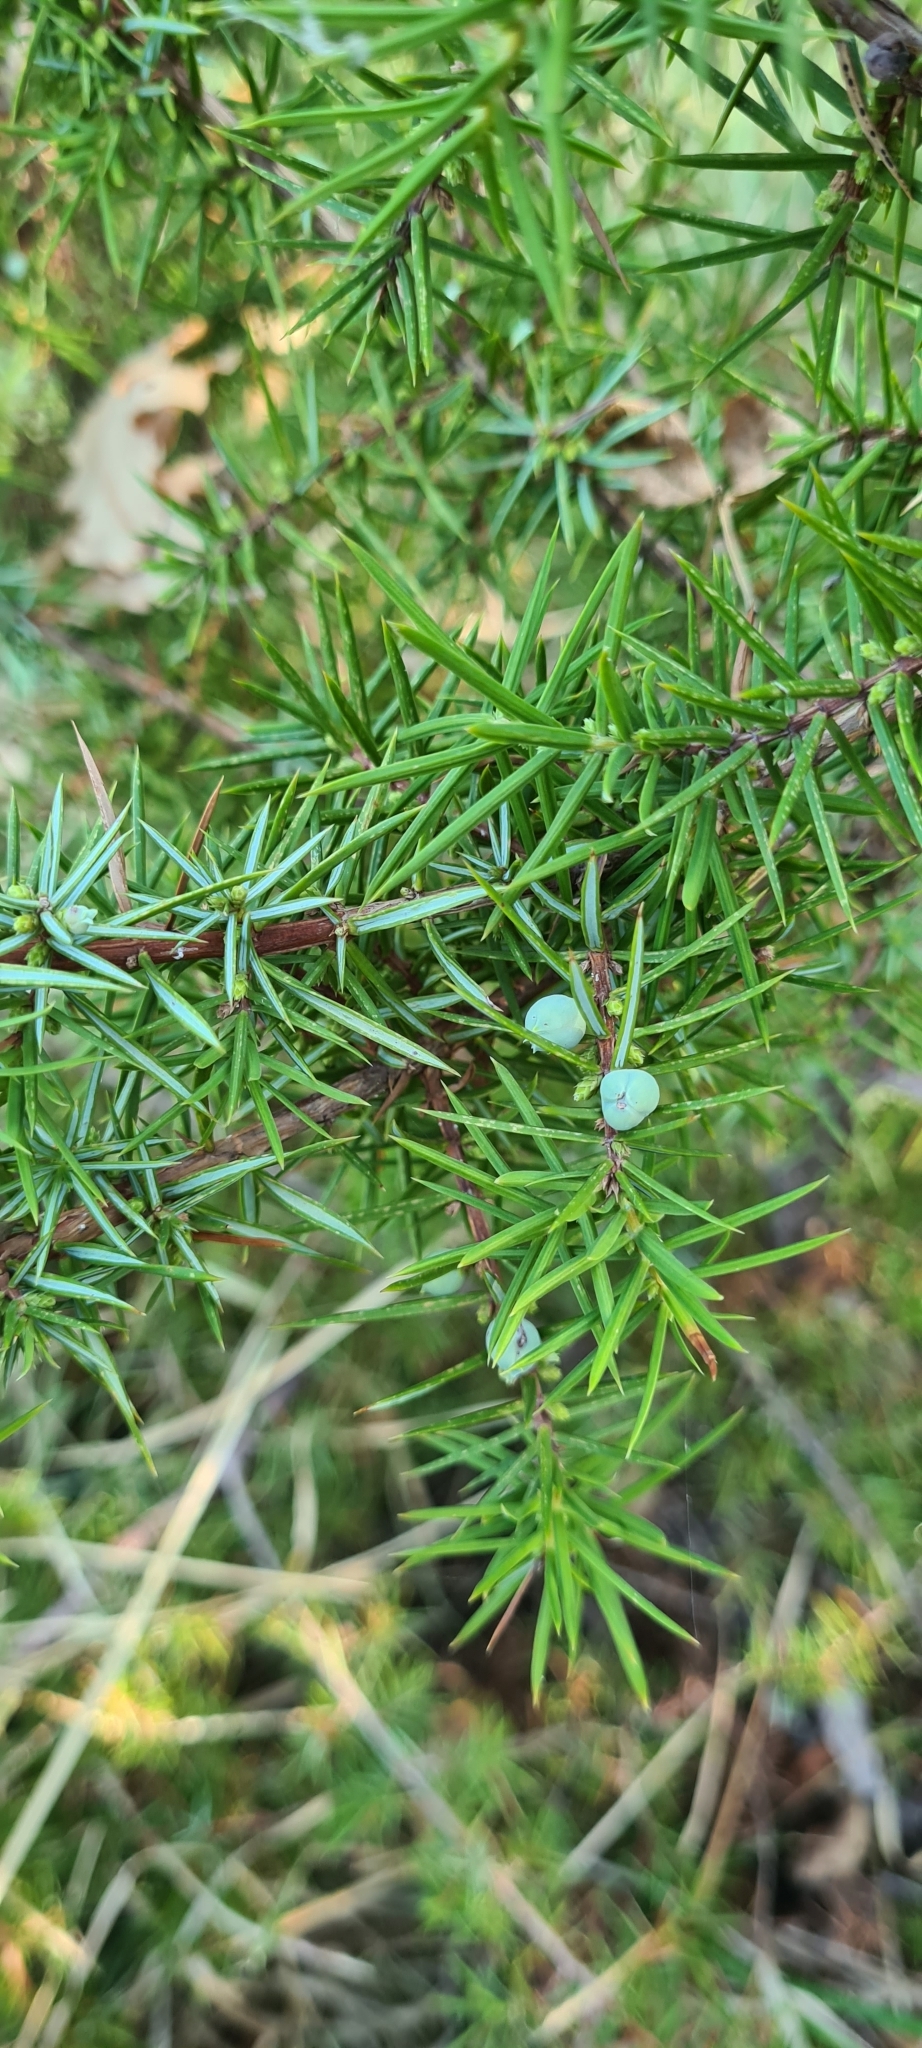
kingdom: Plantae
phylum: Tracheophyta
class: Pinopsida
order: Pinales
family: Cupressaceae
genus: Juniperus
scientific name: Juniperus communis
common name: Common juniper
